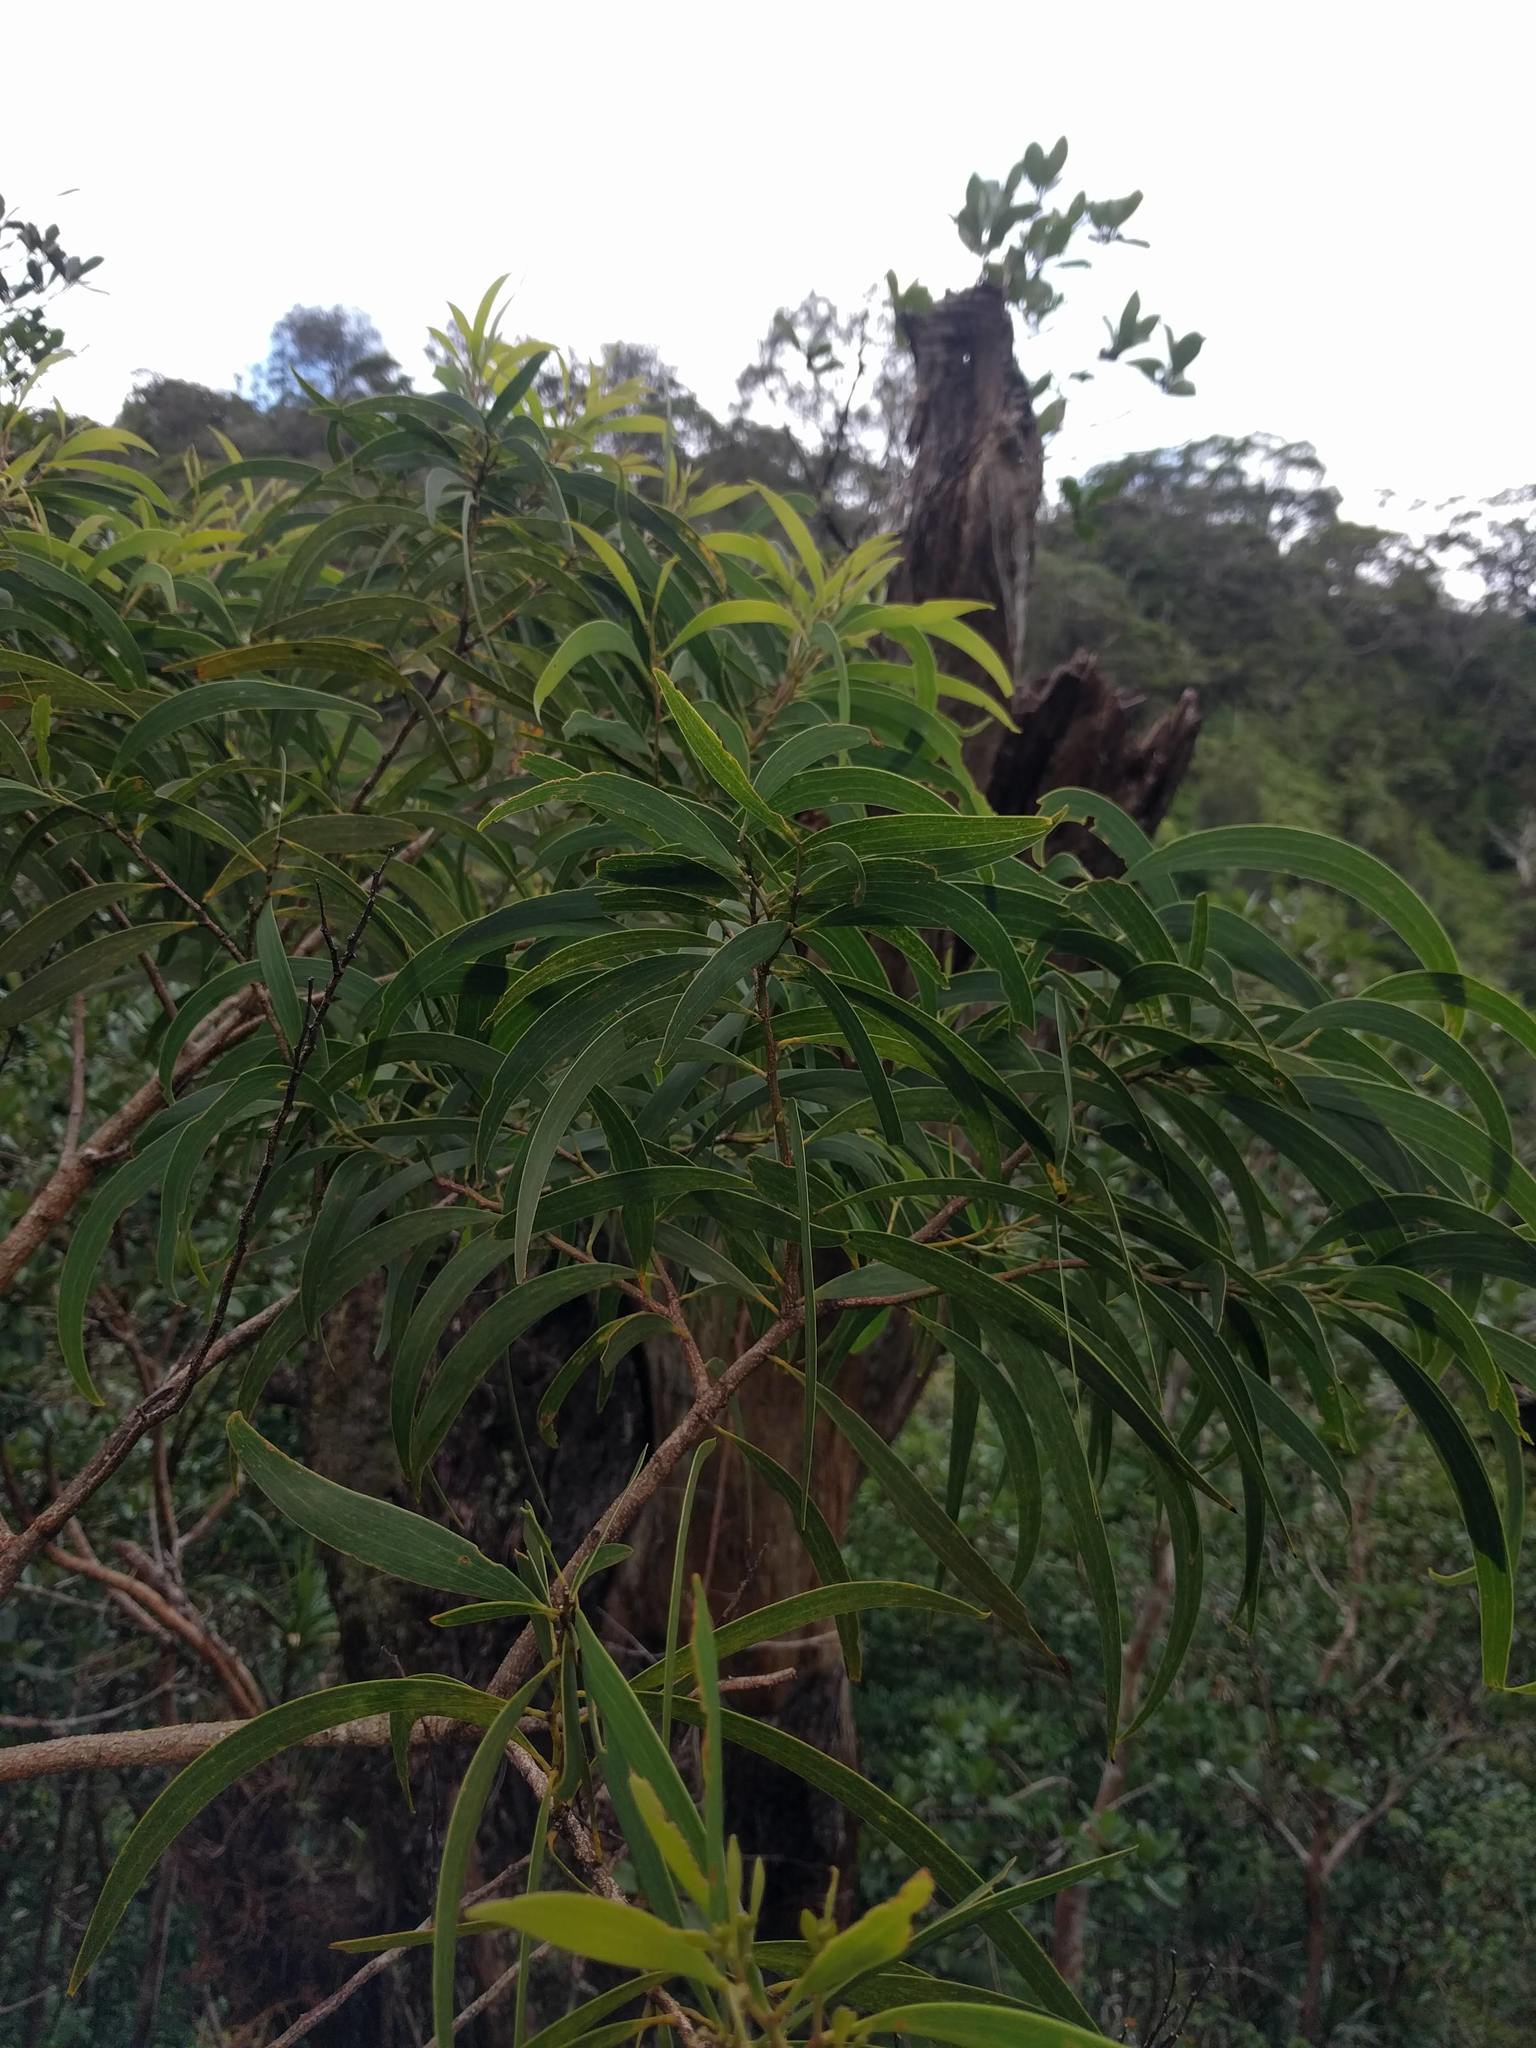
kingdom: Plantae
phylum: Tracheophyta
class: Magnoliopsida
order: Fabales
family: Fabaceae
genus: Acacia
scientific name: Acacia koa
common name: Gray koa
